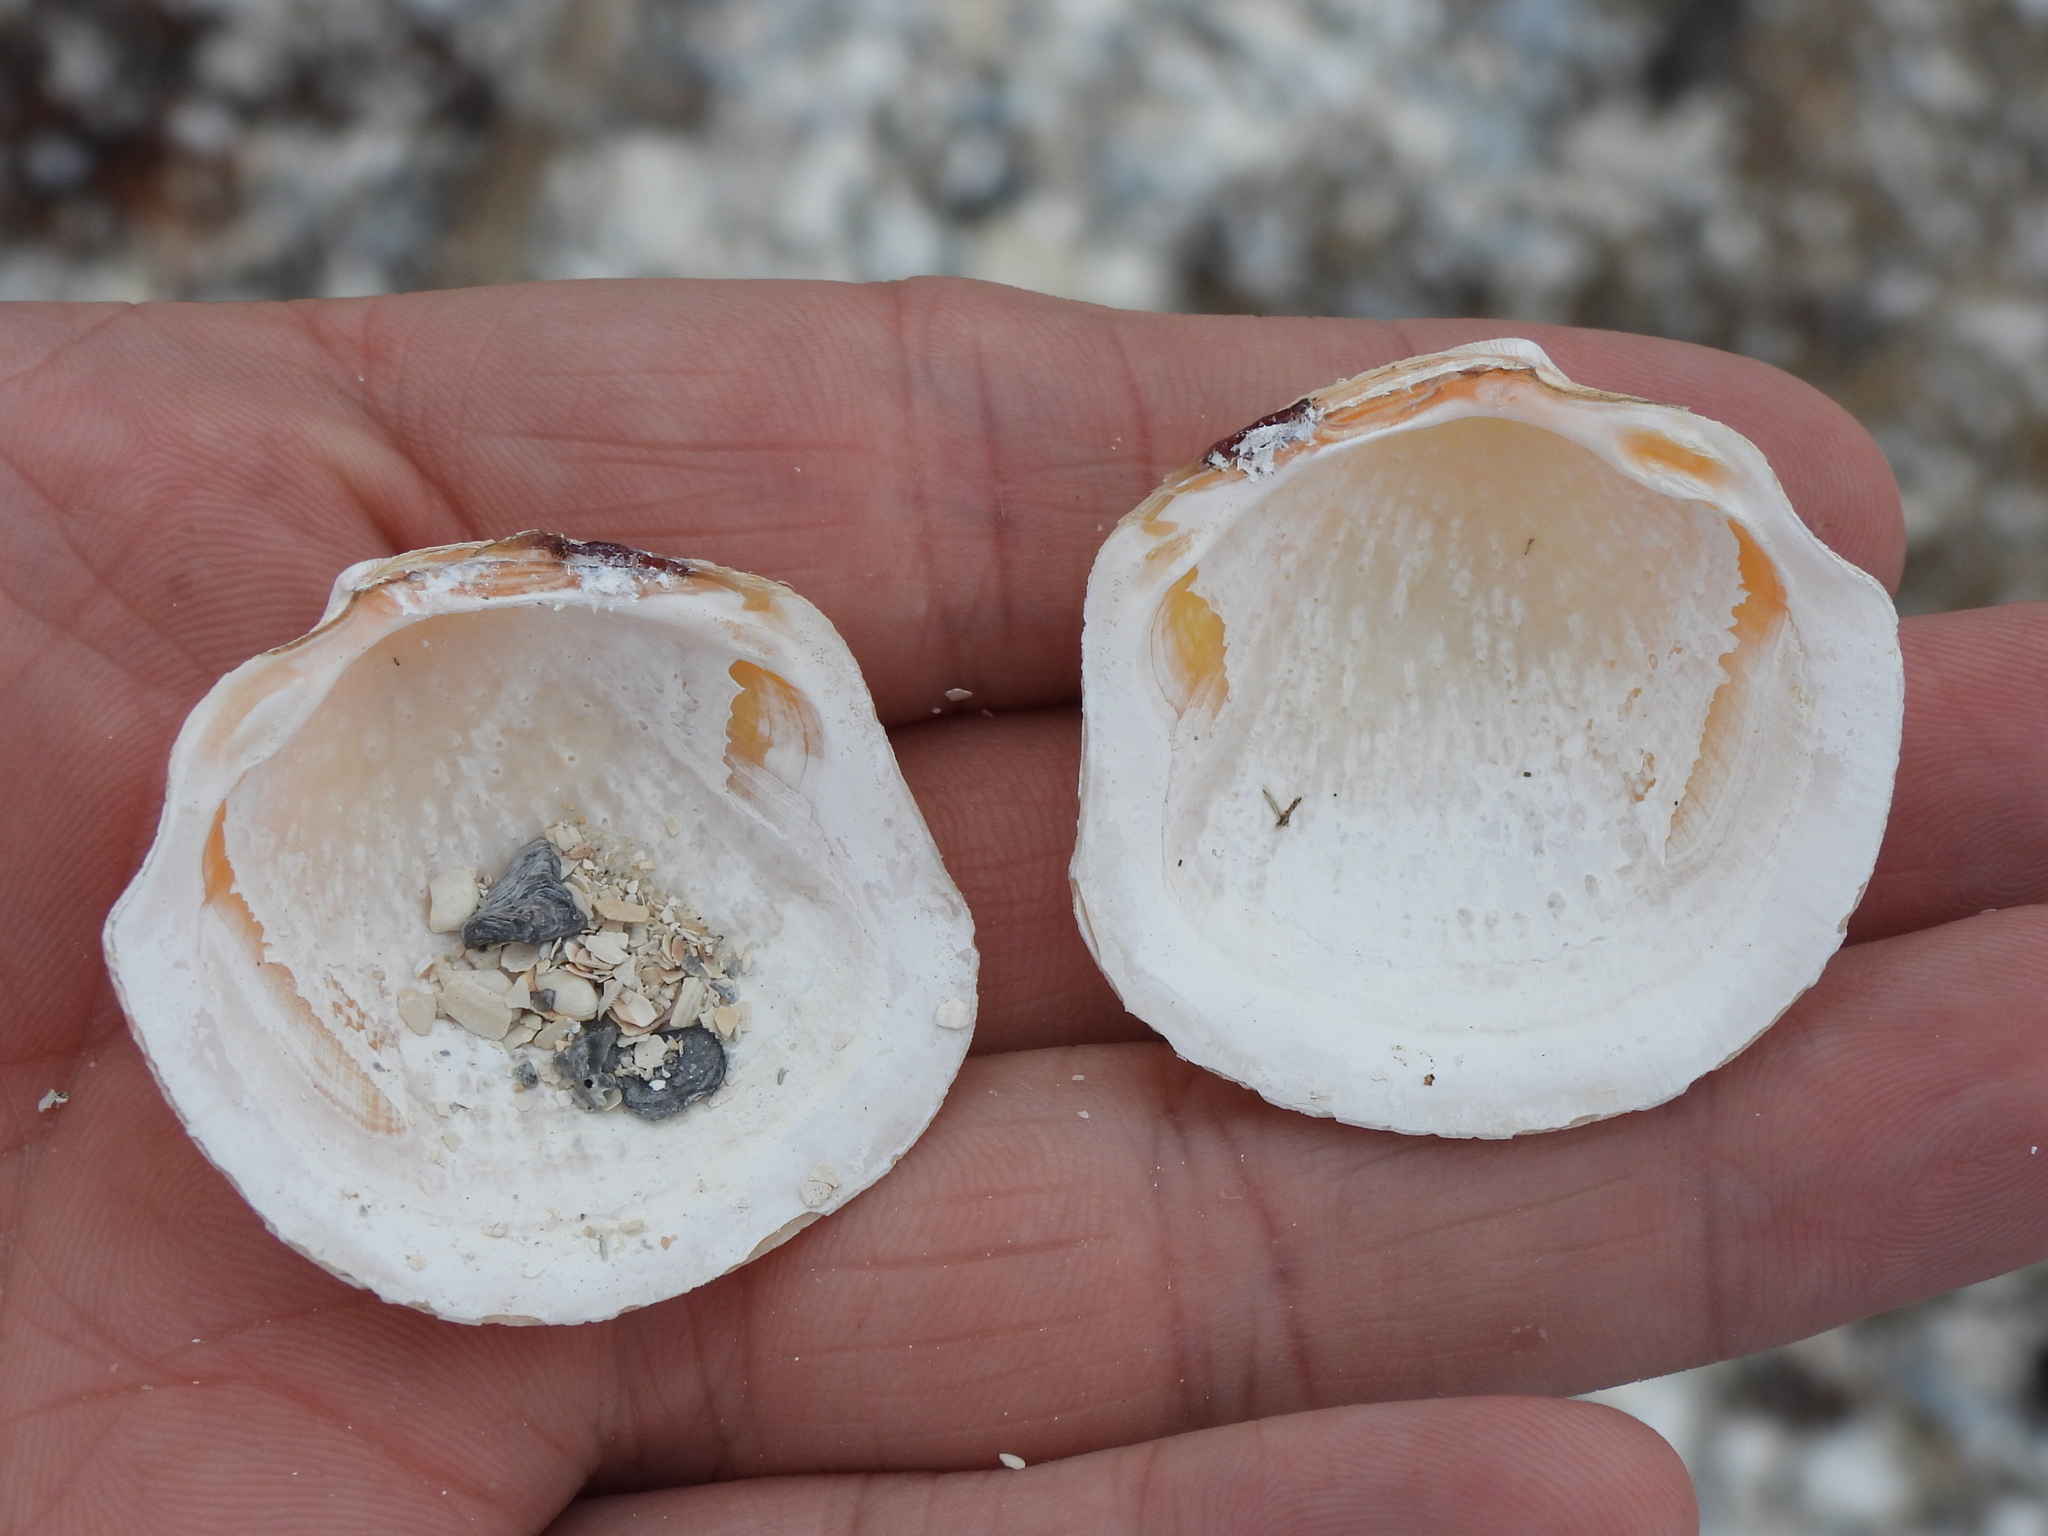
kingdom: Animalia
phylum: Mollusca
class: Bivalvia
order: Lucinida
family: Lucinidae
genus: Phacoides
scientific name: Phacoides pectinatus
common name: Thick lucine
